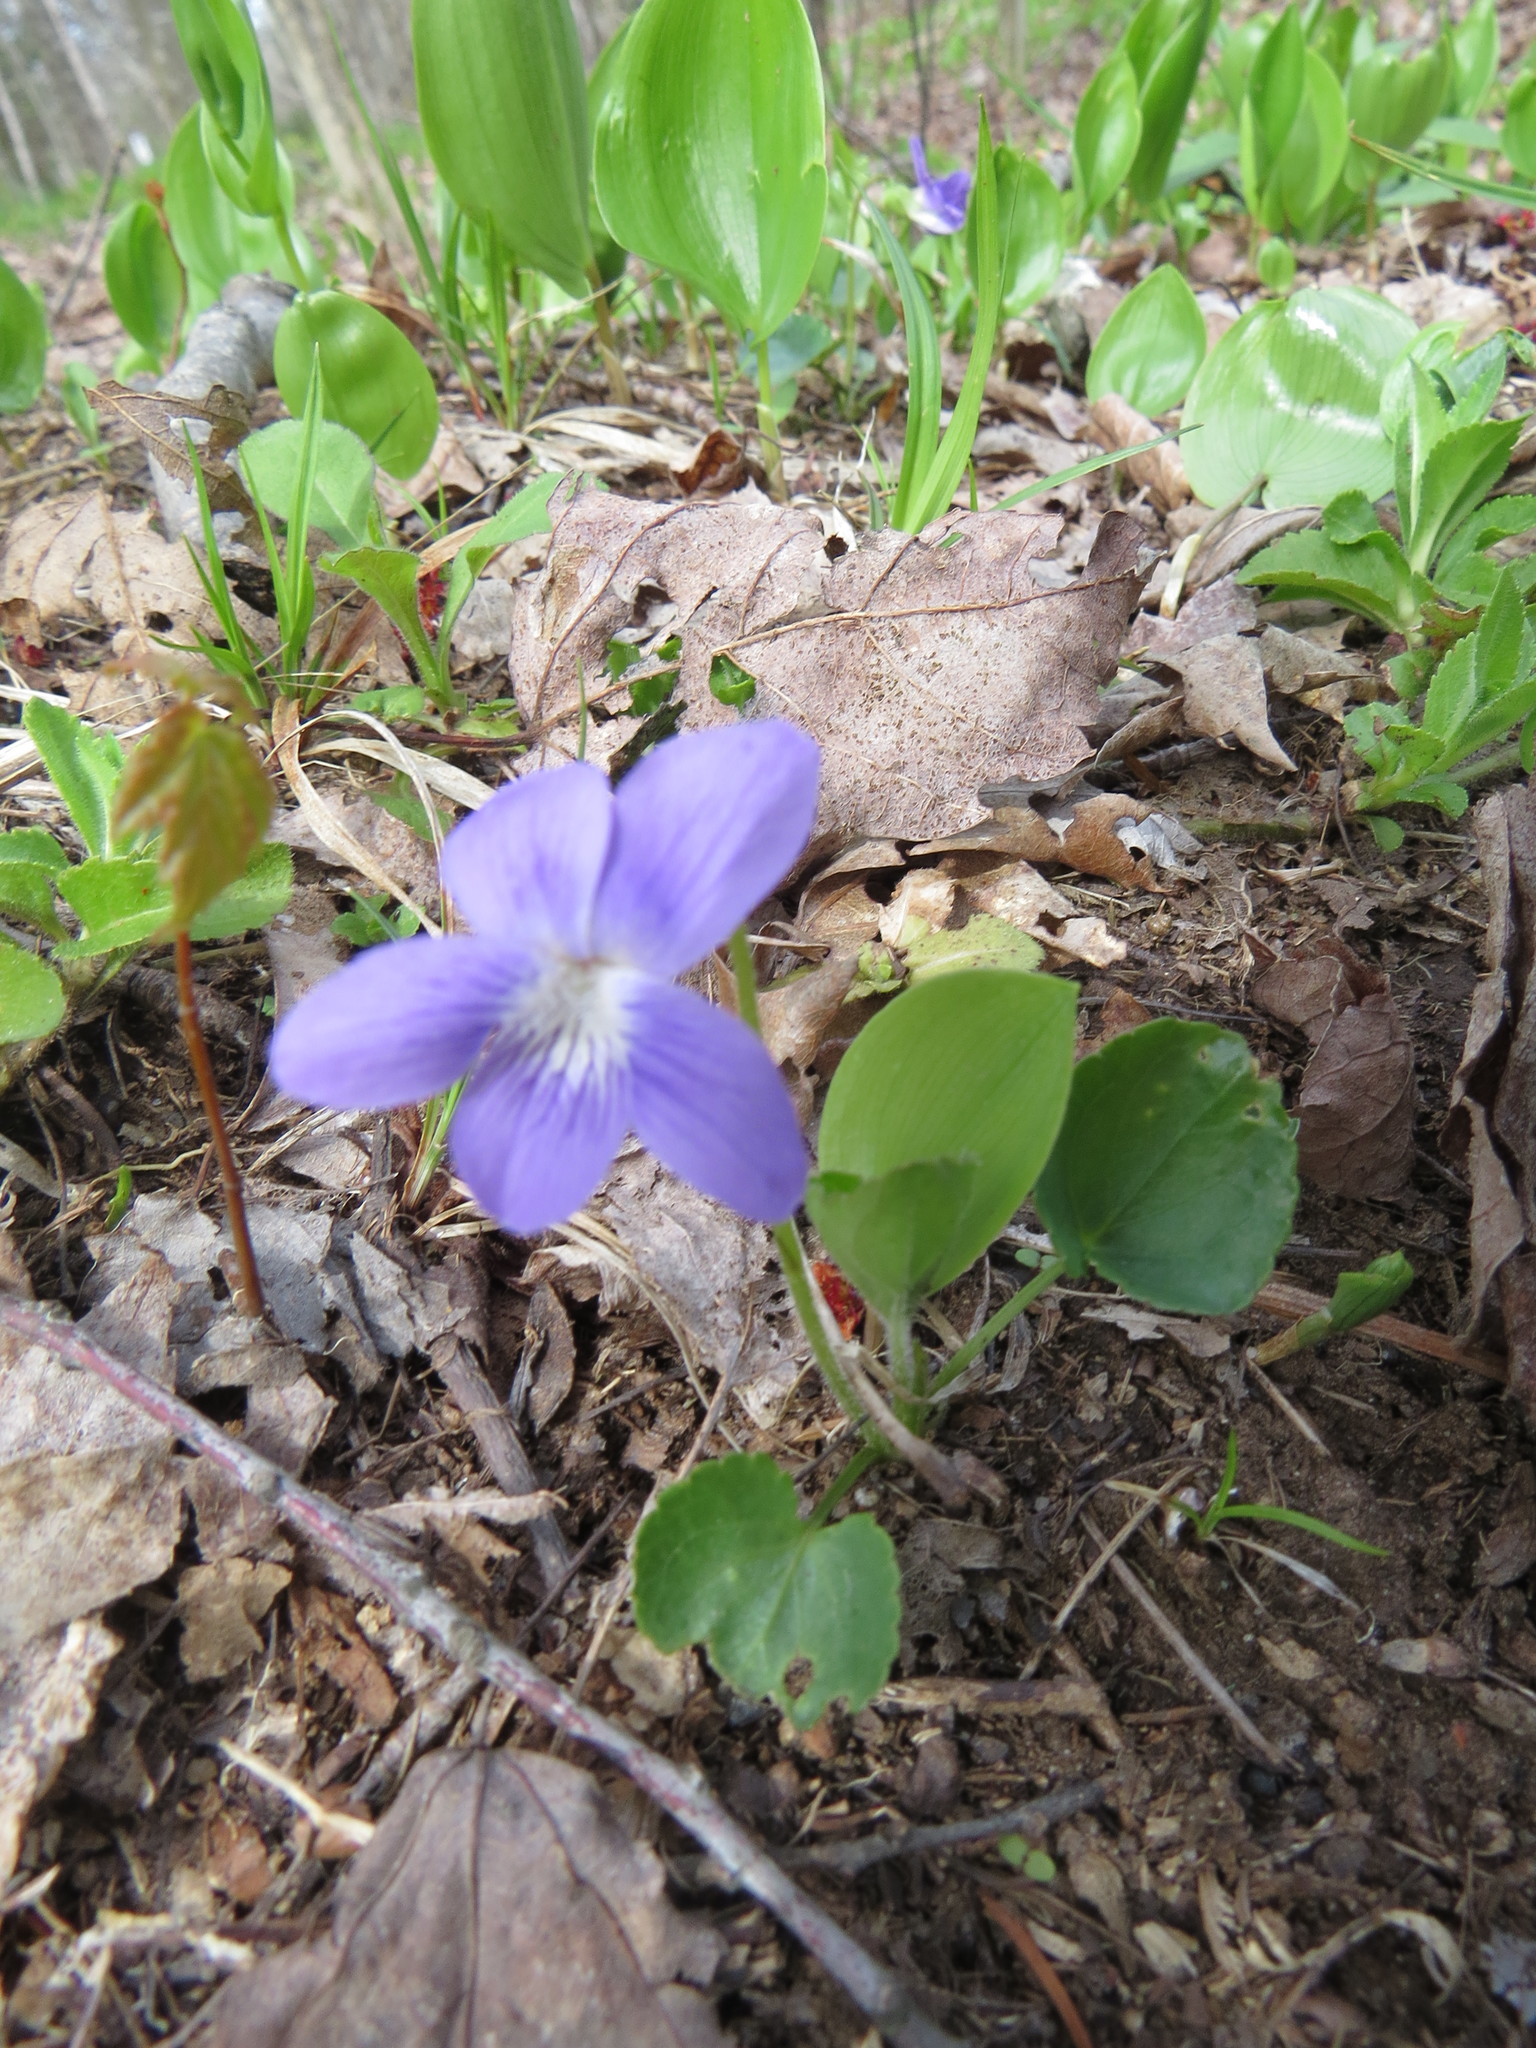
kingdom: Plantae
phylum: Tracheophyta
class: Magnoliopsida
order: Malpighiales
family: Violaceae
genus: Viola
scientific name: Viola sororia
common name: Dooryard violet
